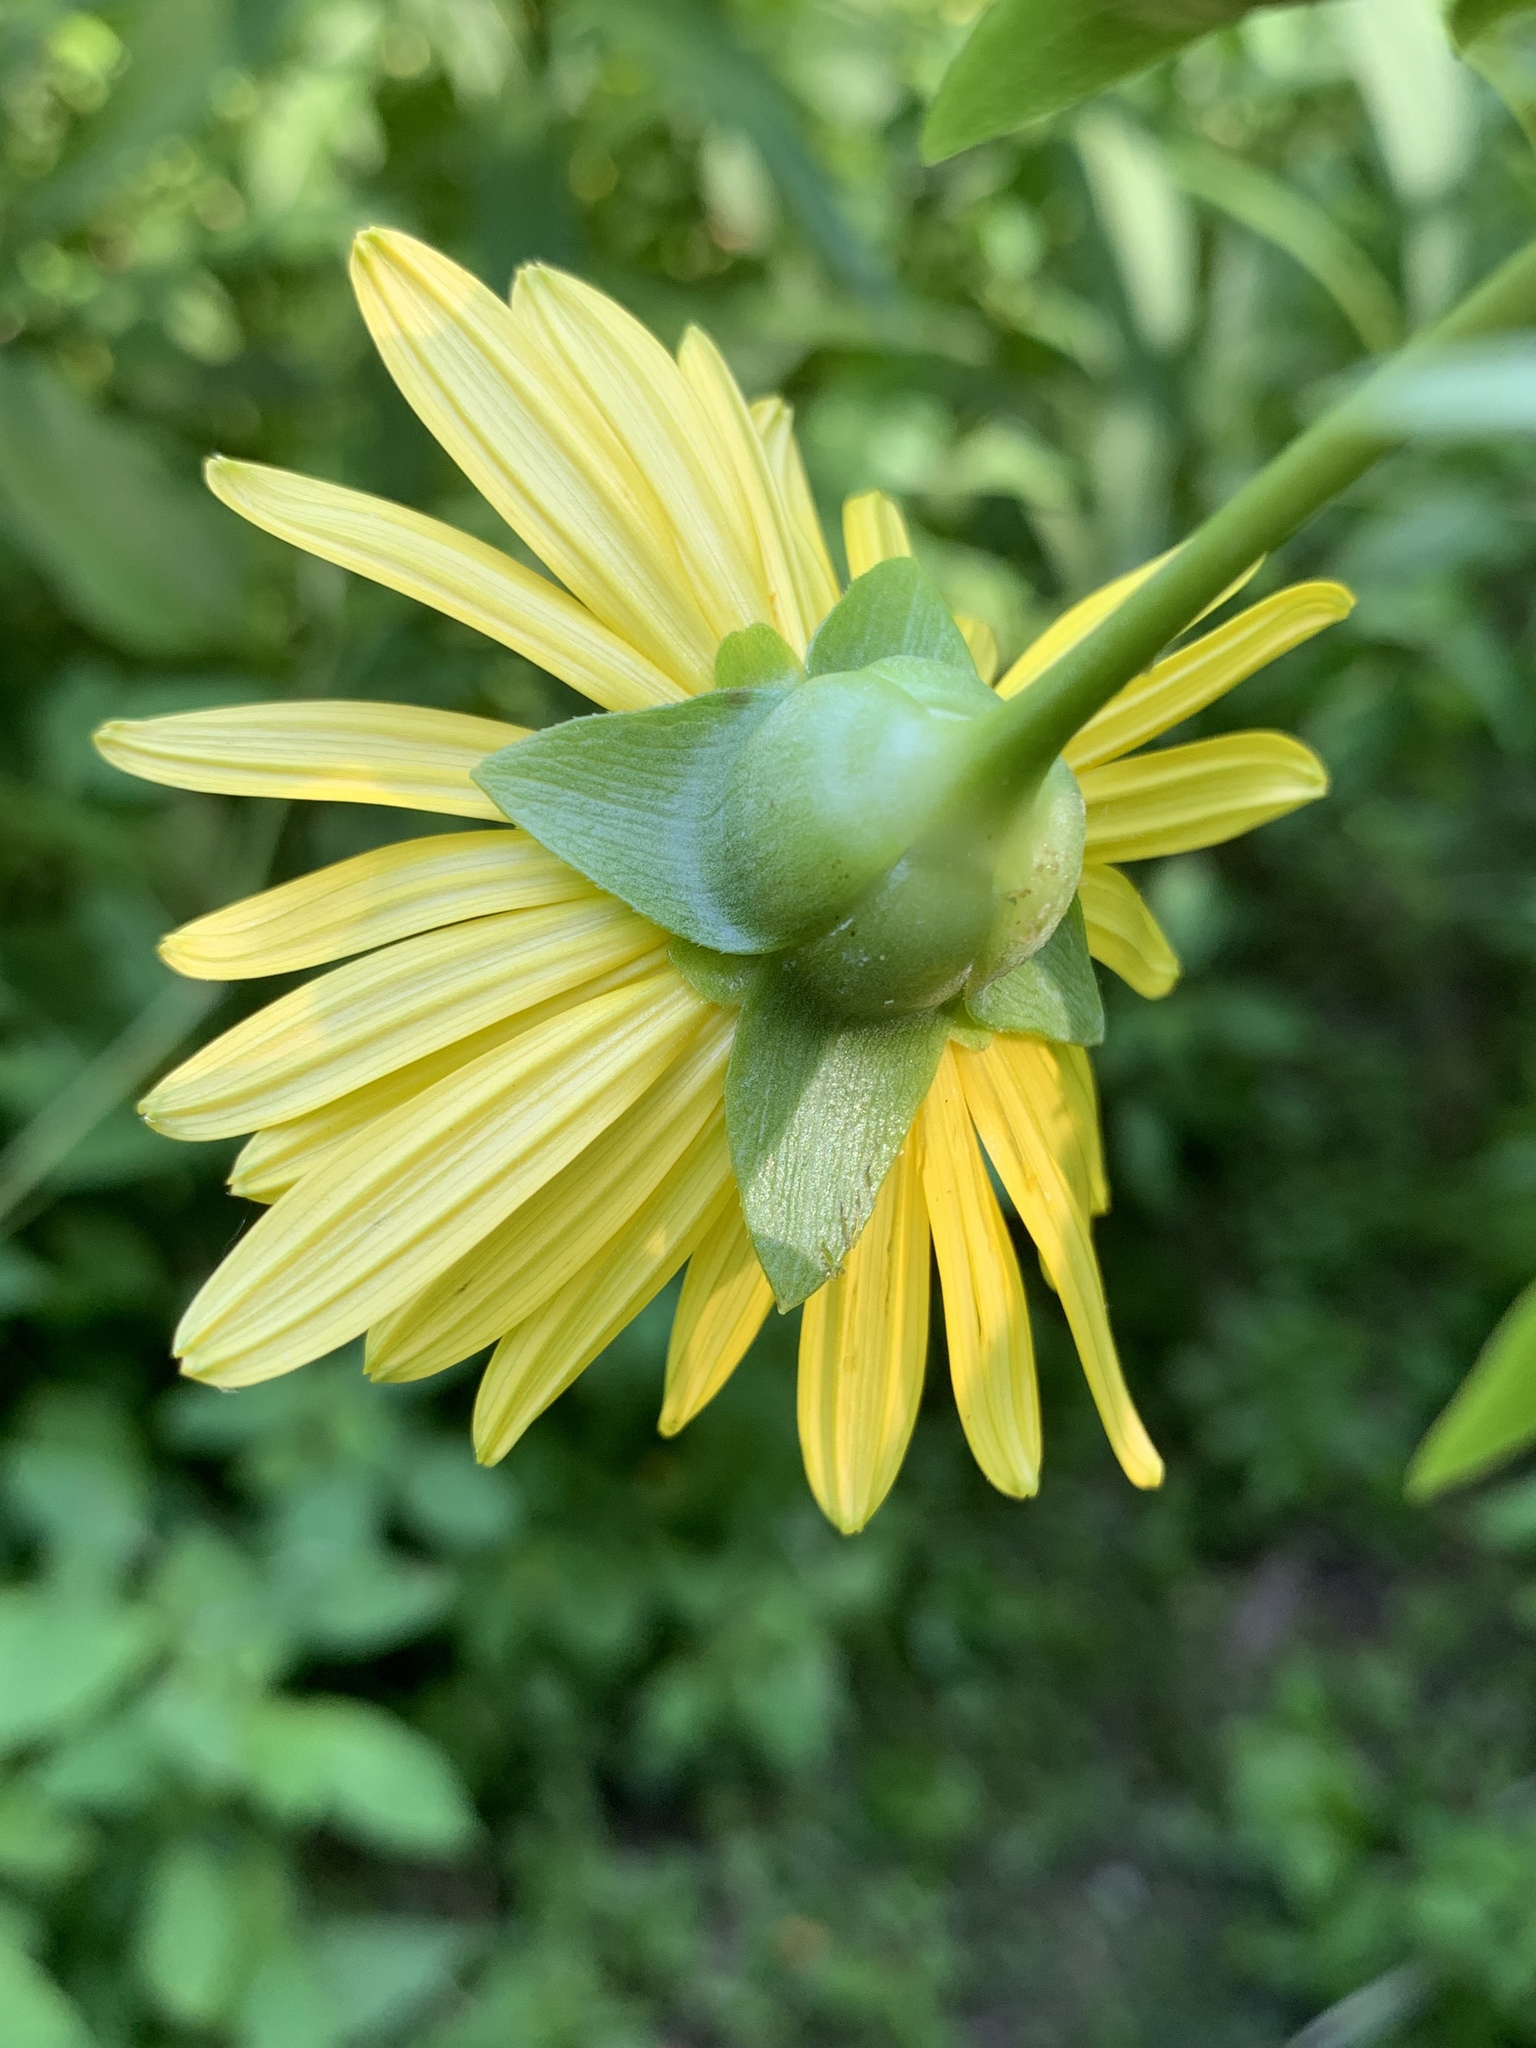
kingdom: Plantae
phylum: Tracheophyta
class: Magnoliopsida
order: Asterales
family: Asteraceae
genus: Silphium
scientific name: Silphium perfoliatum
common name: Cup-plant
